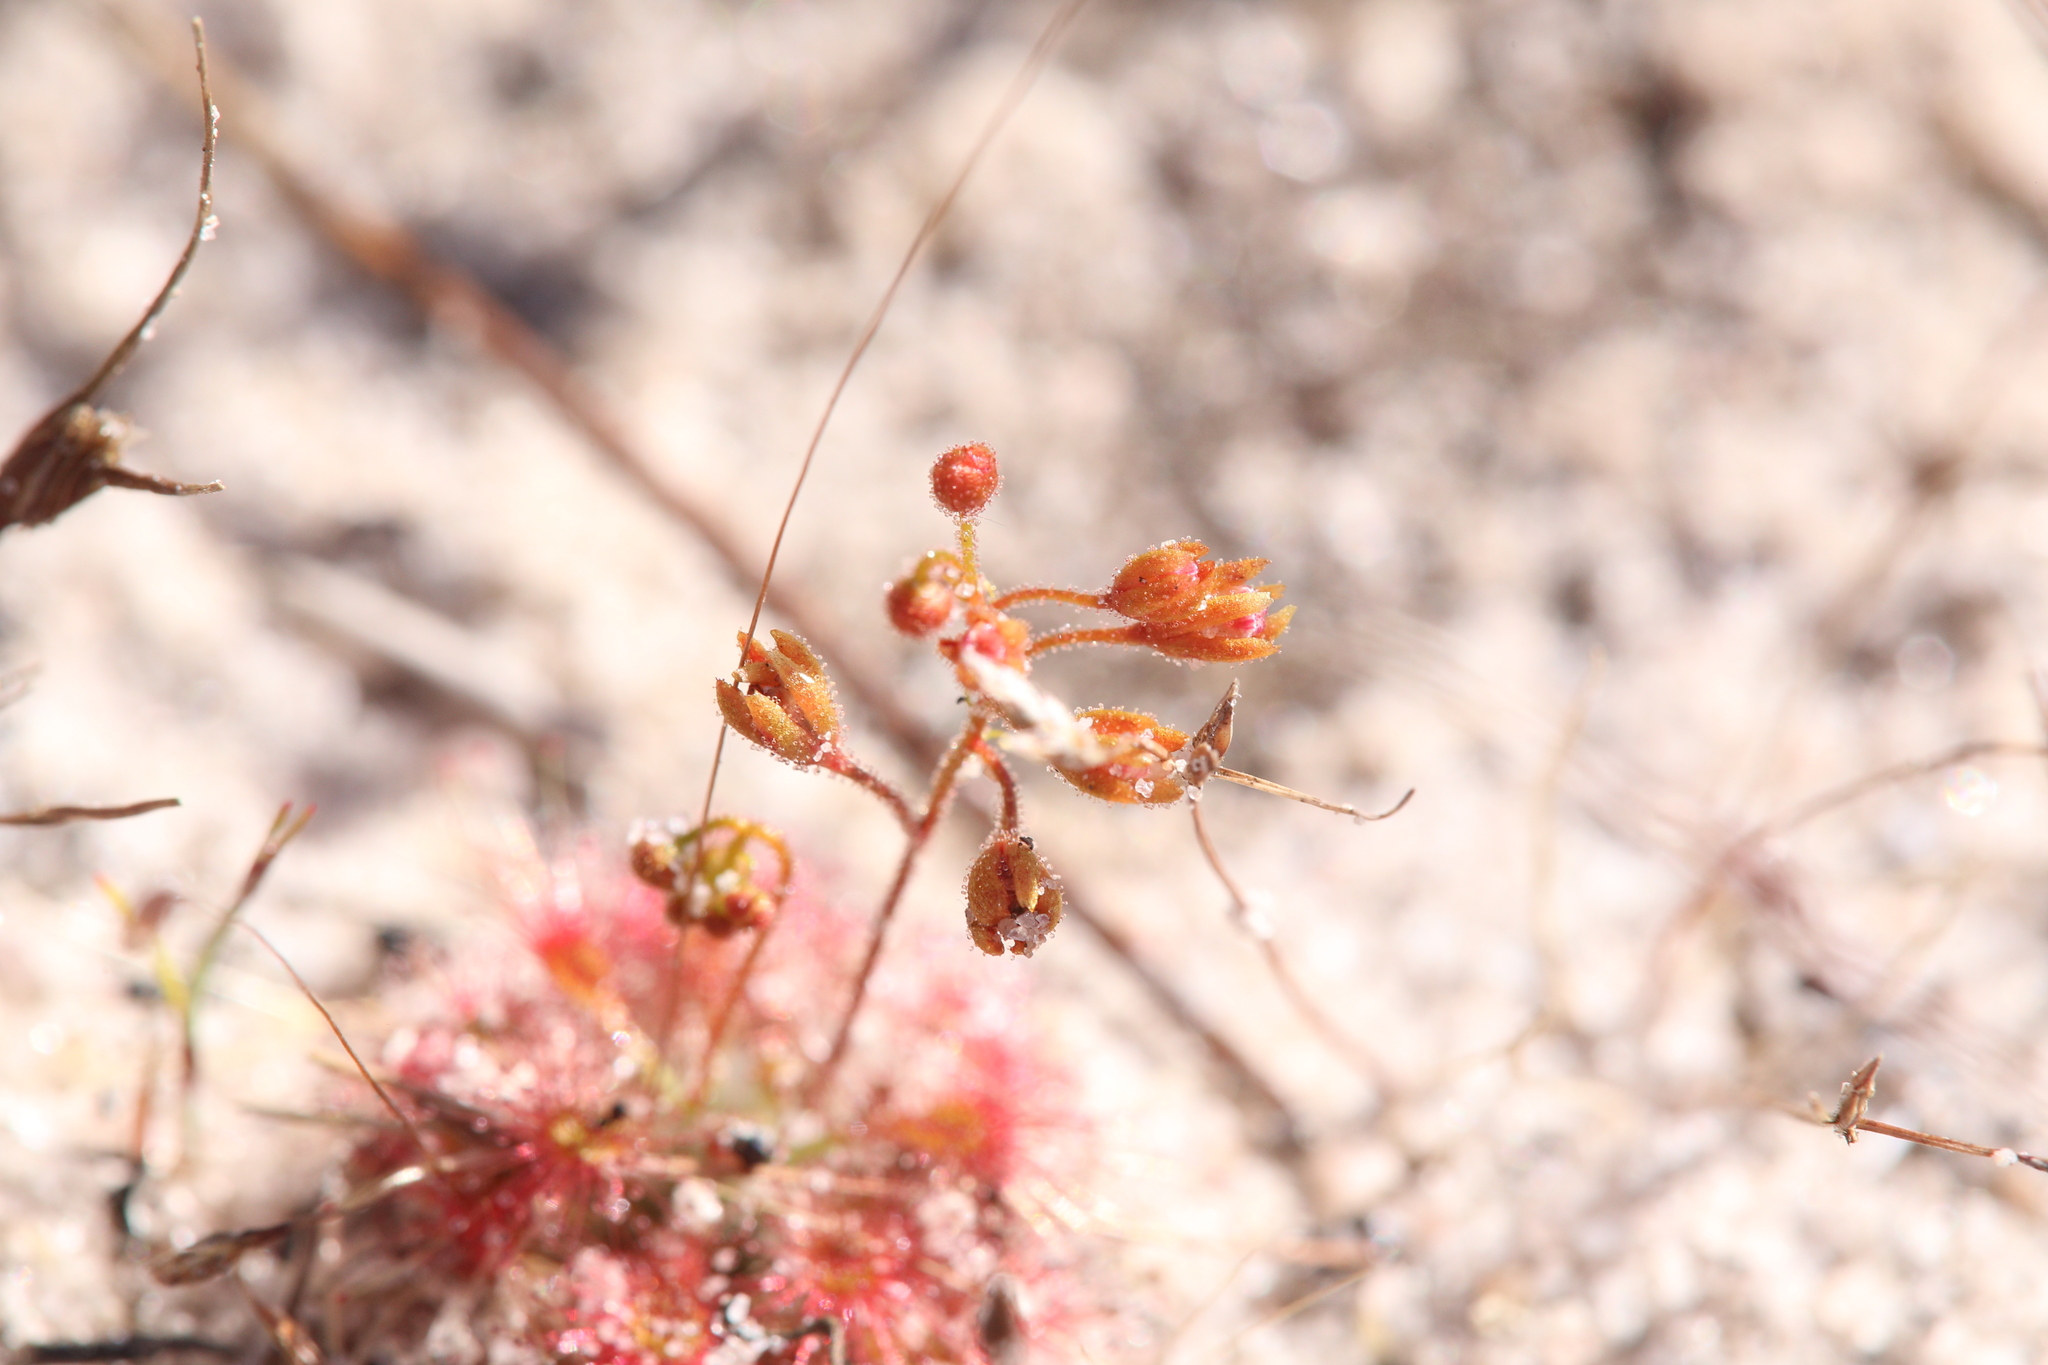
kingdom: Plantae
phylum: Tracheophyta
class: Magnoliopsida
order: Caryophyllales
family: Droseraceae
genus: Drosera
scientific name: Drosera leucostigma
